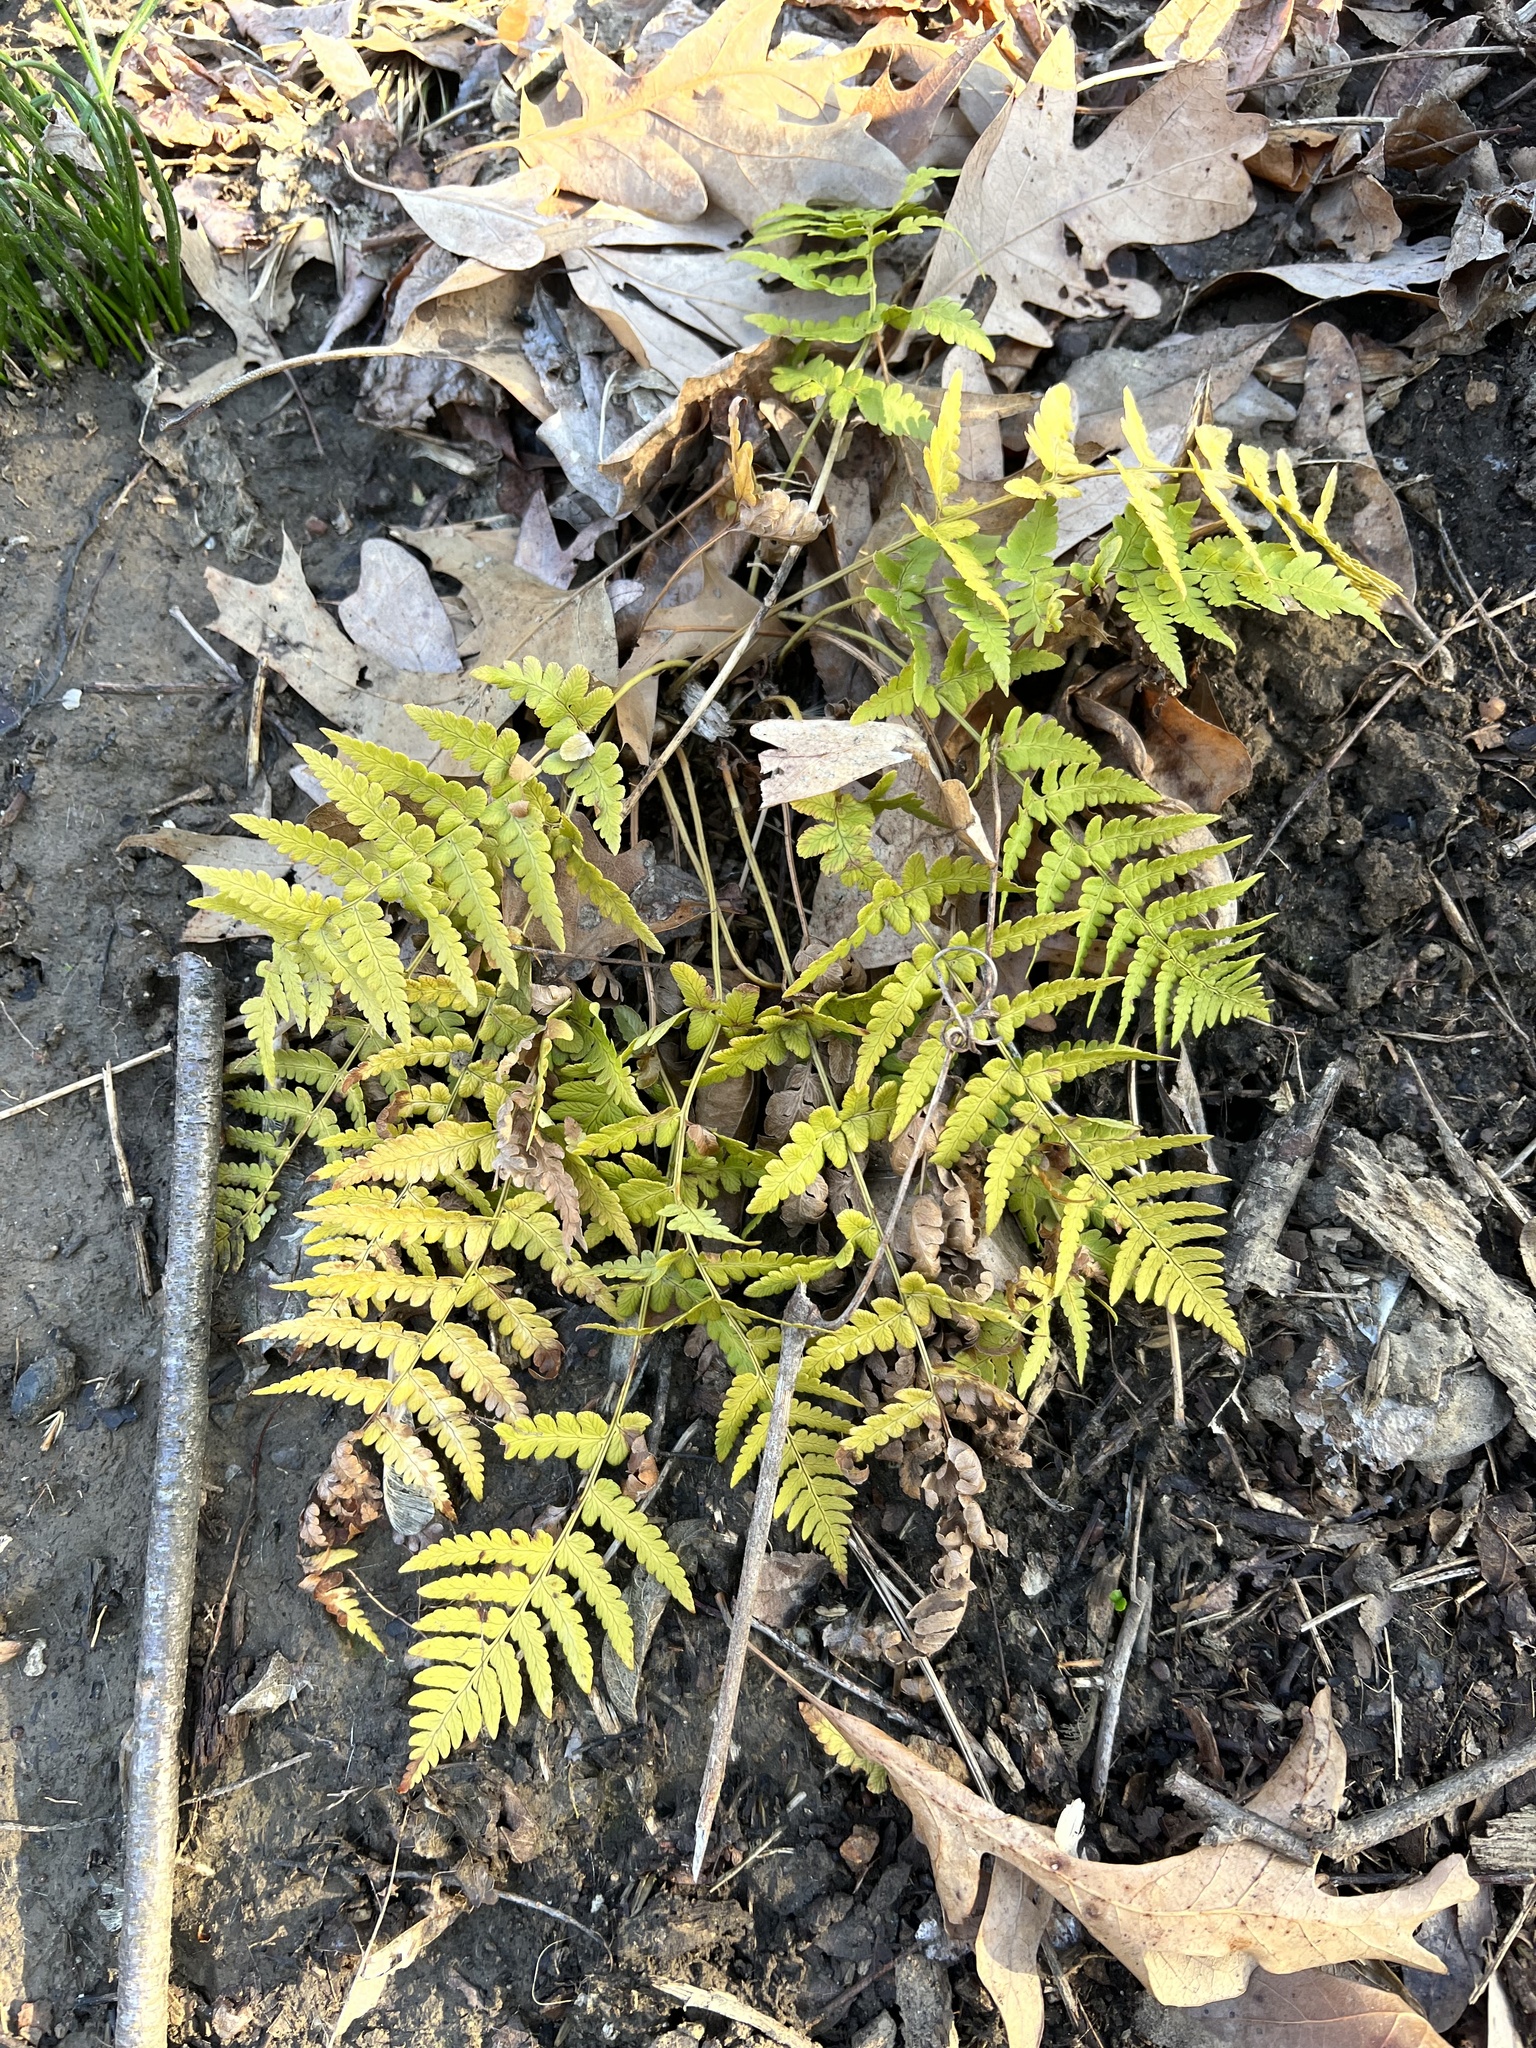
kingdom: Plantae
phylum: Tracheophyta
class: Polypodiopsida
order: Polypodiales
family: Dryopteridaceae
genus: Dryopteris
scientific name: Dryopteris marginalis
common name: Marginal wood fern
